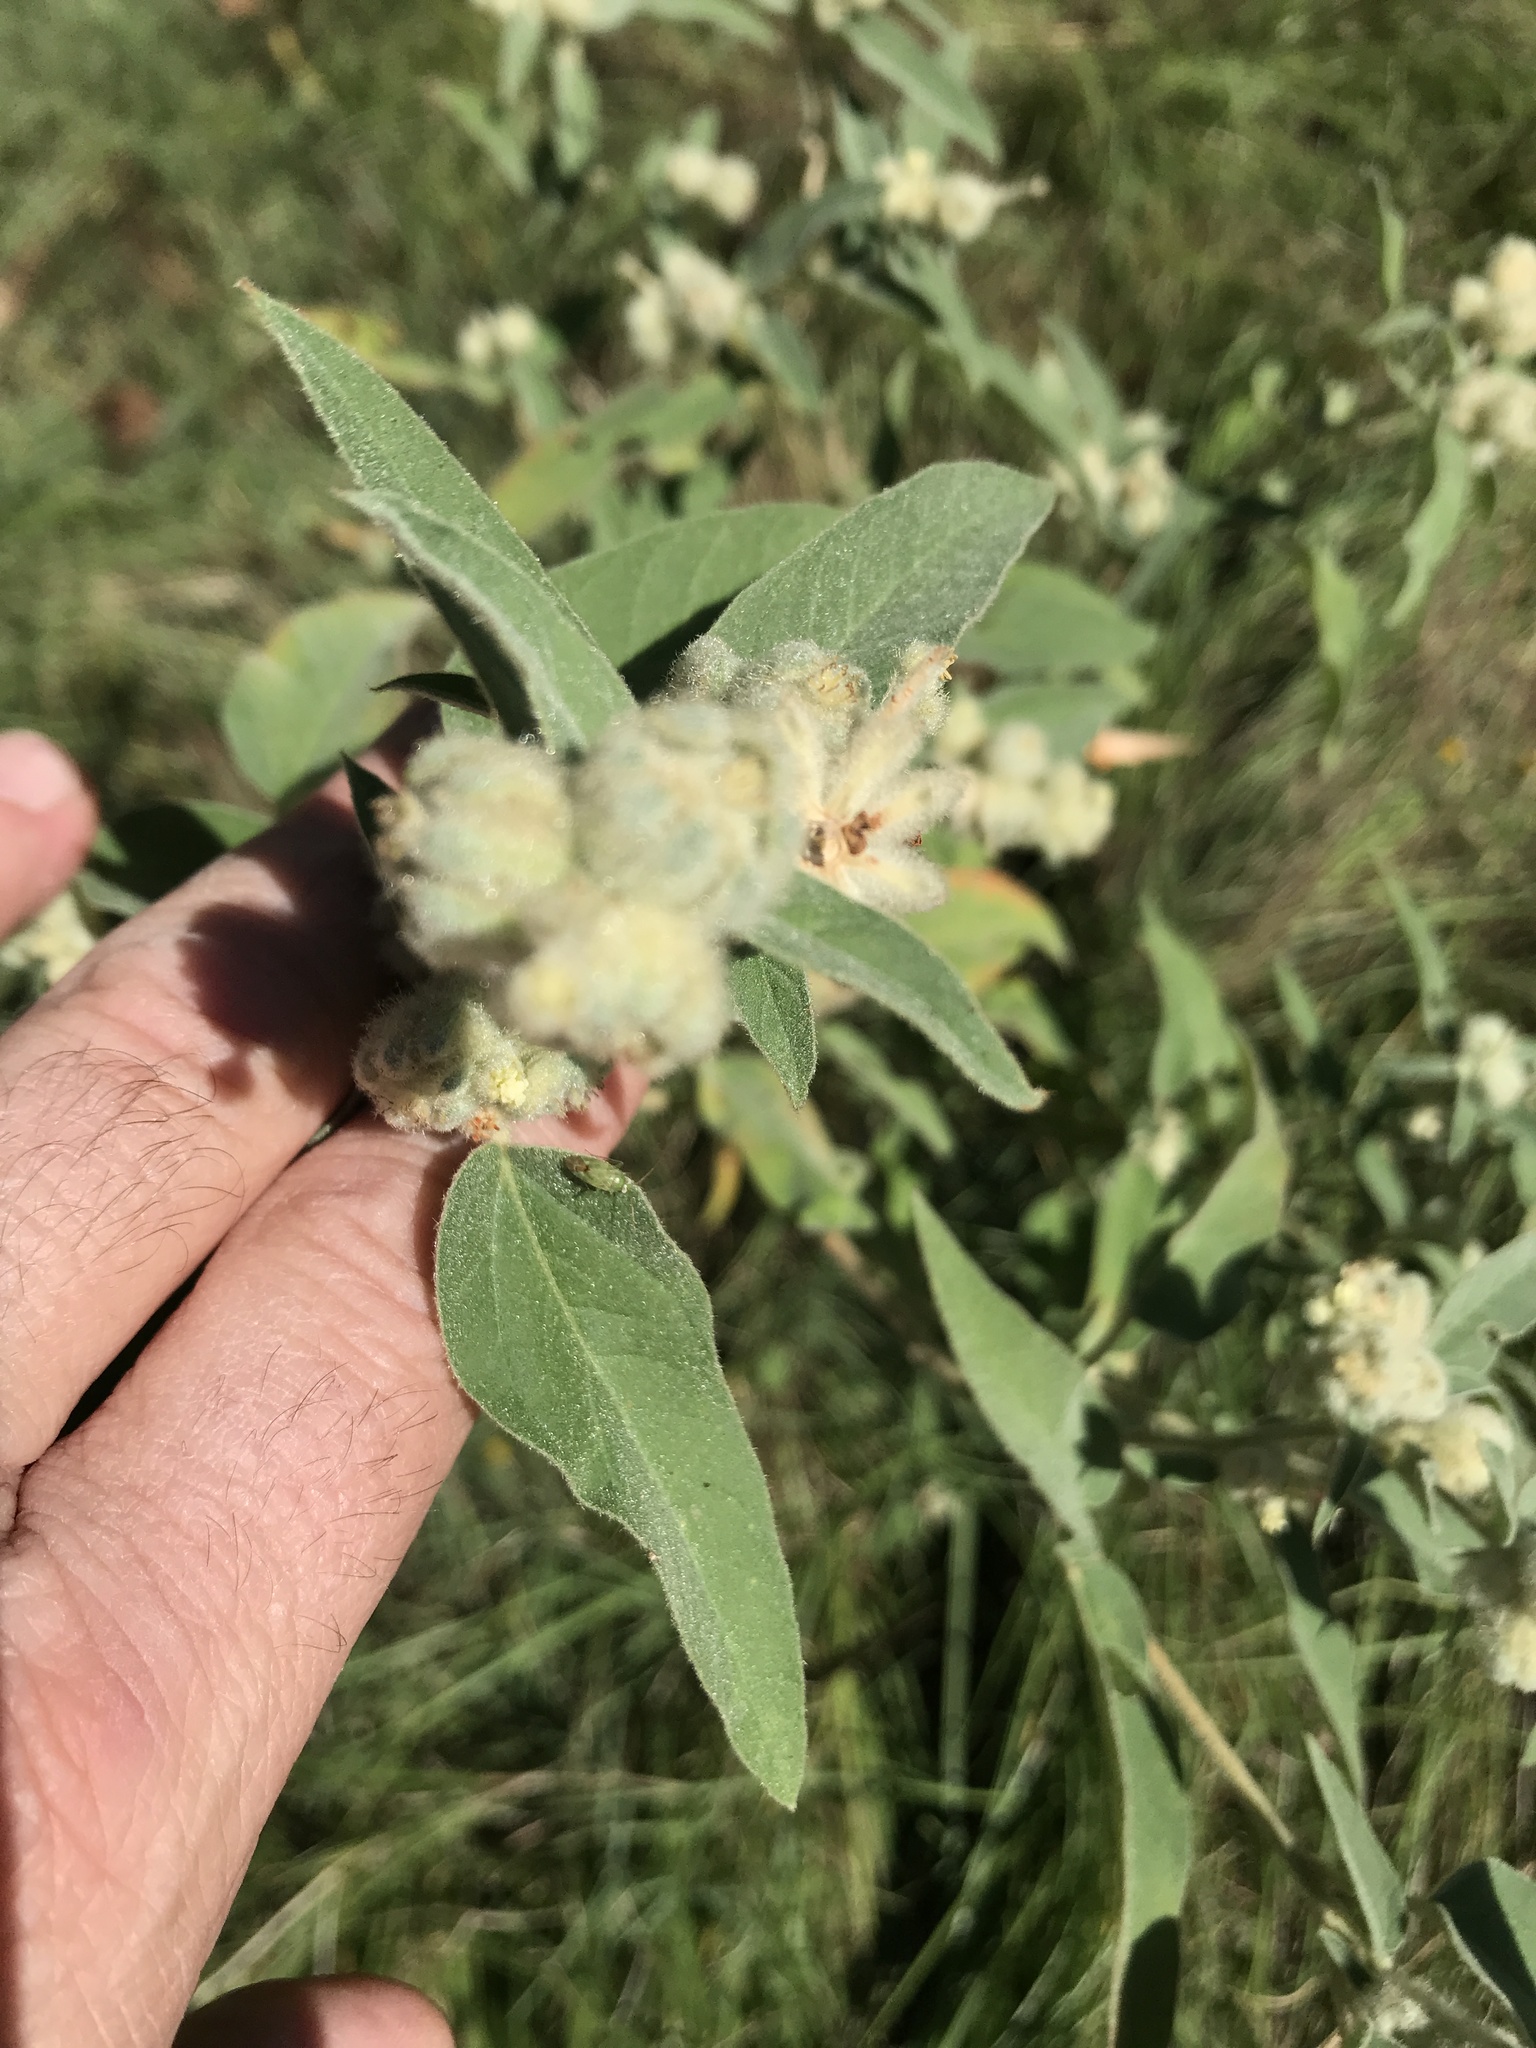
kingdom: Plantae
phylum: Tracheophyta
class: Magnoliopsida
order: Malpighiales
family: Euphorbiaceae
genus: Croton
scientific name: Croton lindheimeri
